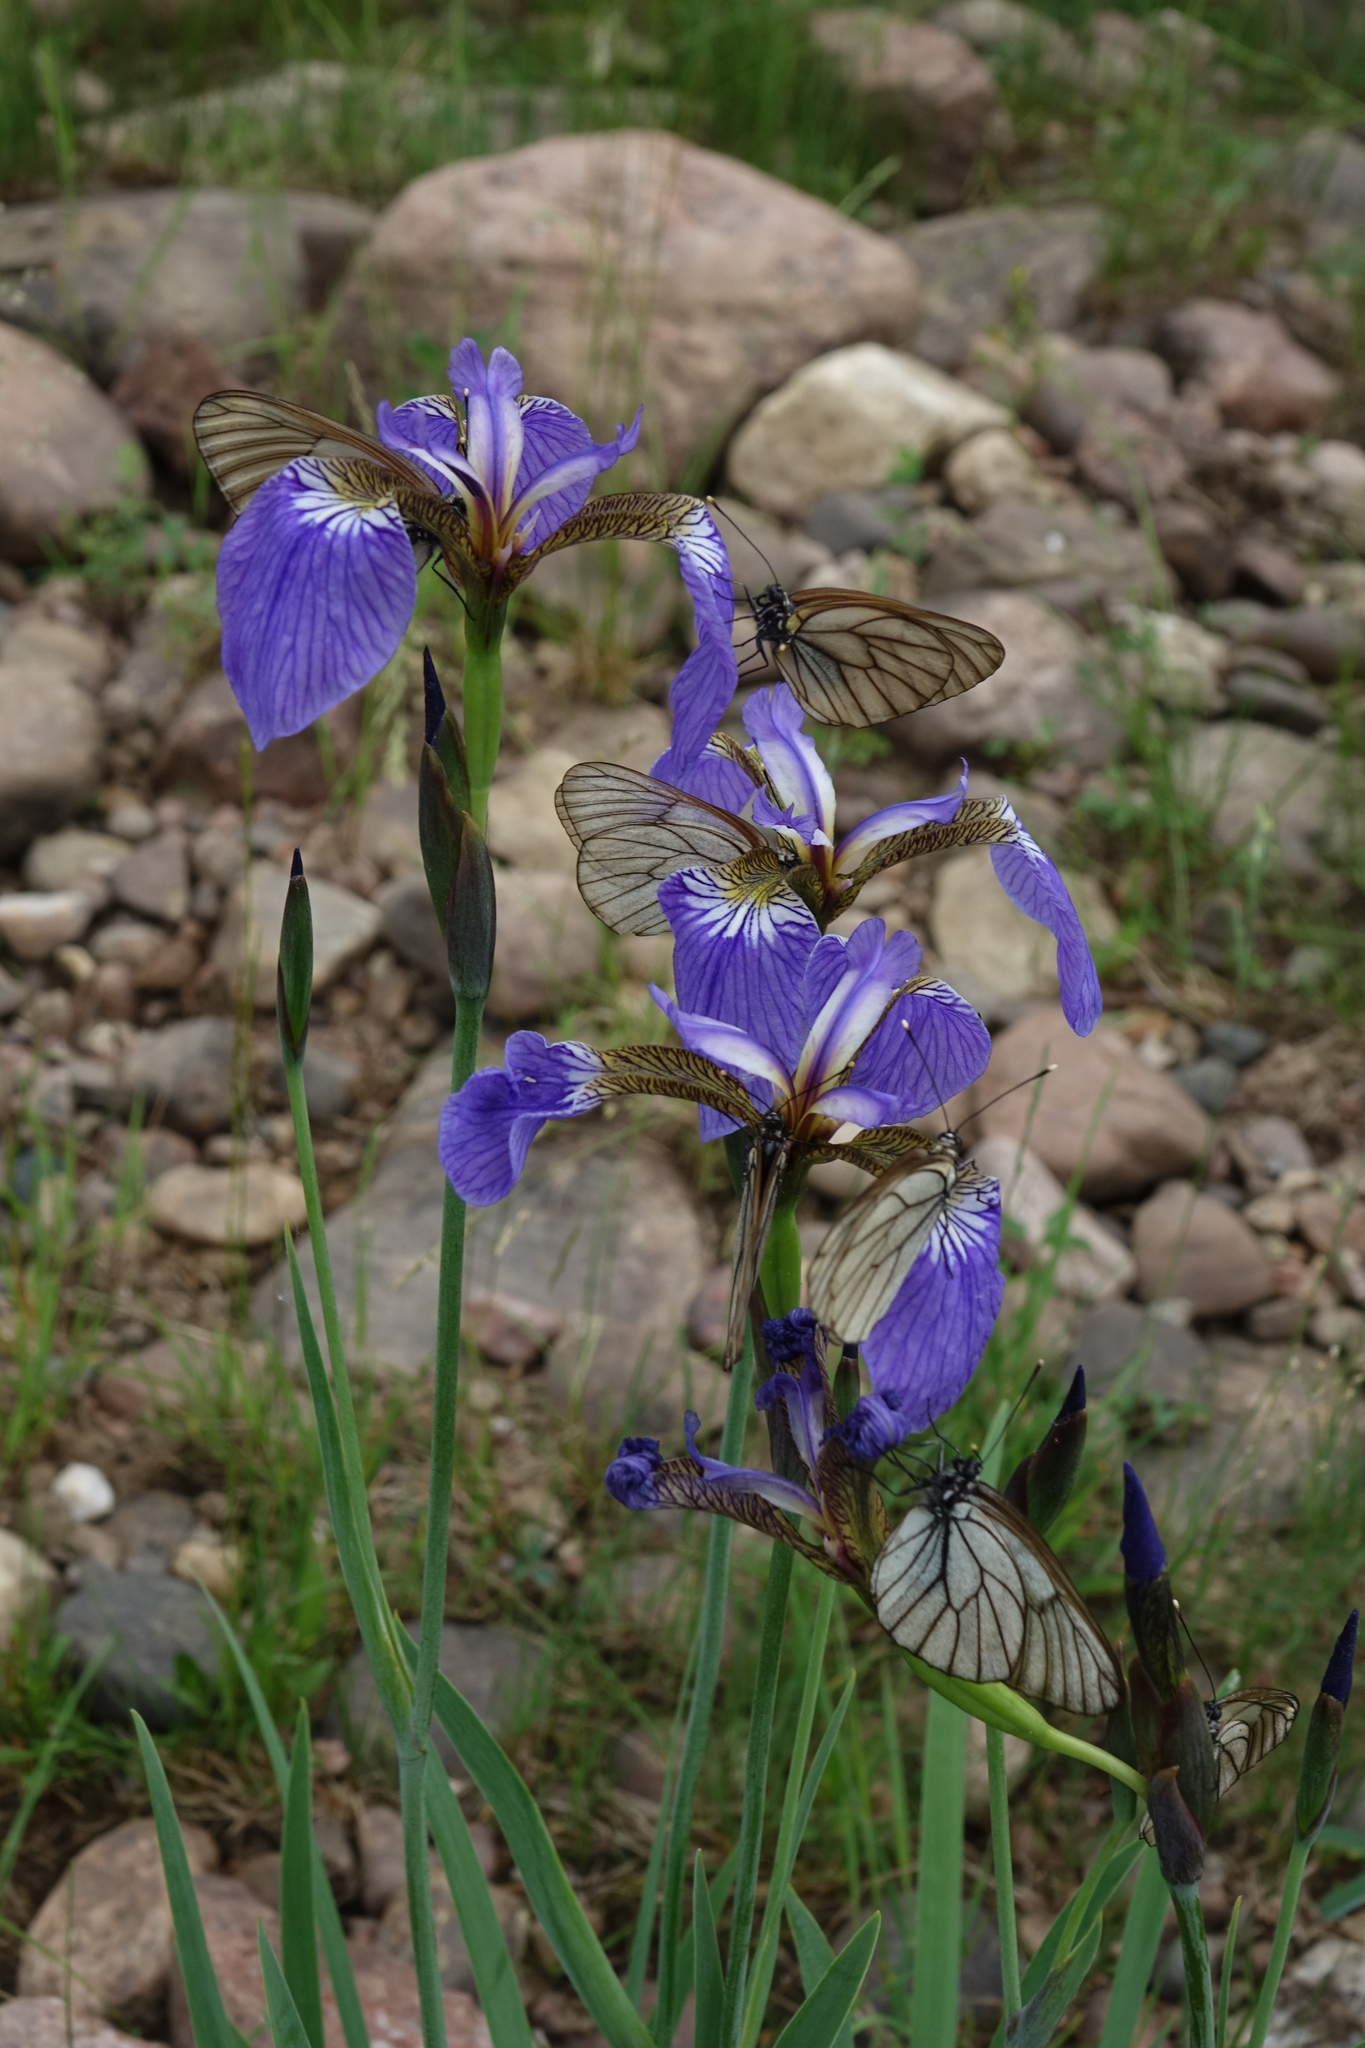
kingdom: Plantae
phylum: Tracheophyta
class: Liliopsida
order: Asparagales
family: Iridaceae
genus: Iris
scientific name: Iris setosa
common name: Arctic blue flag
